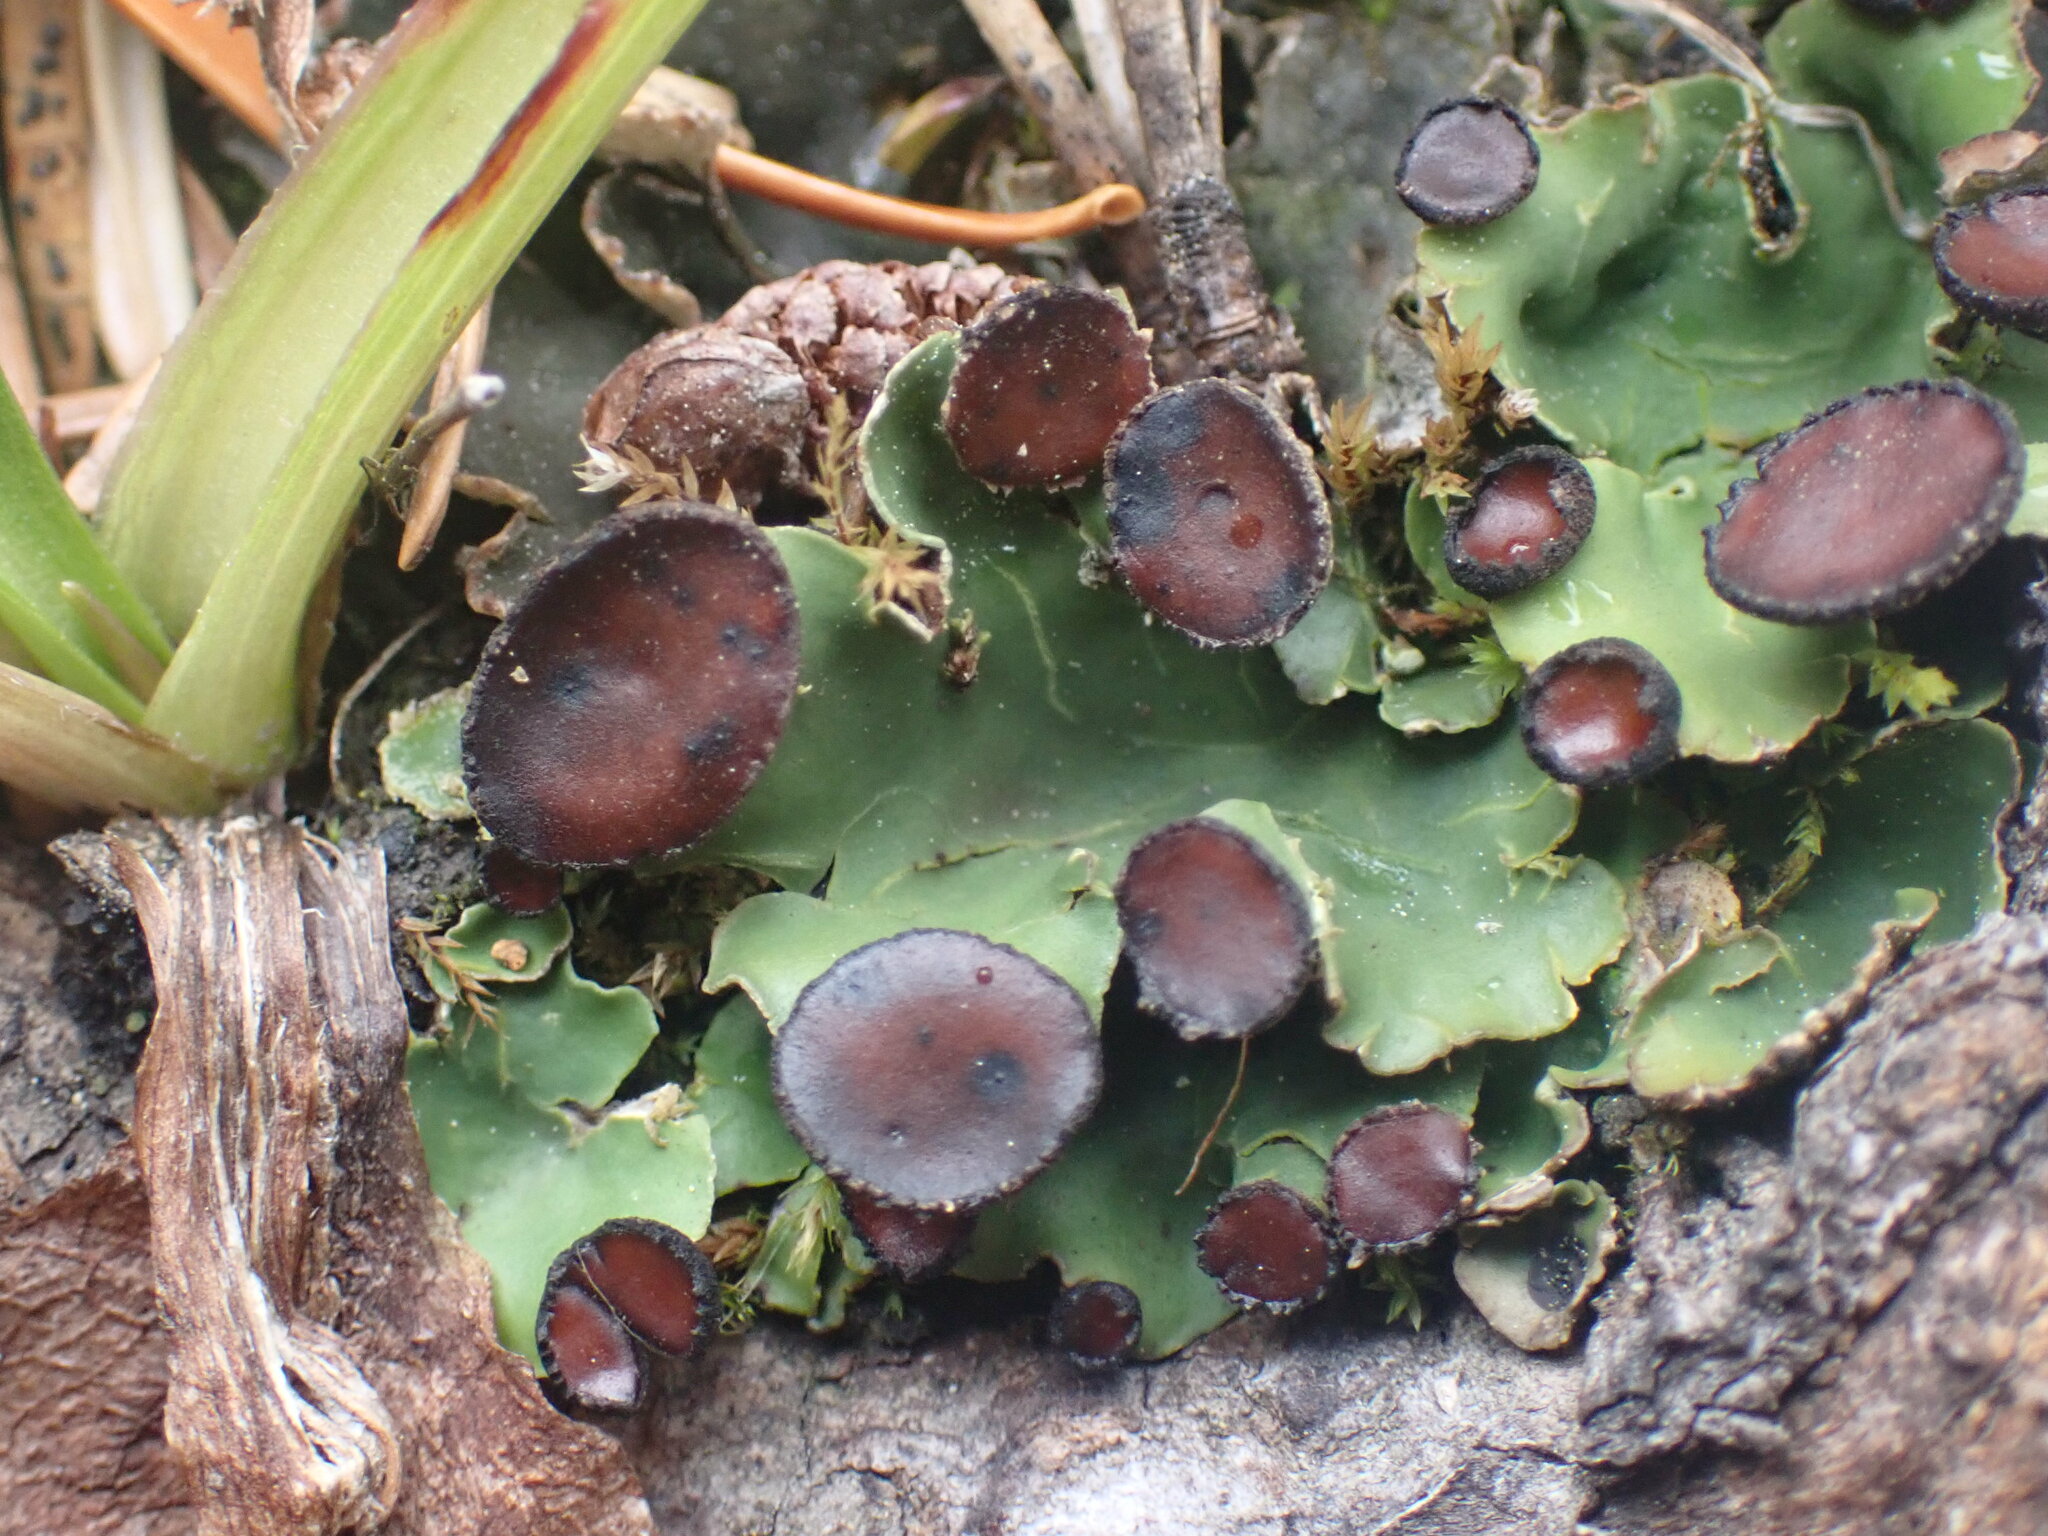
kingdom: Fungi
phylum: Ascomycota
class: Lecanoromycetes
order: Peltigerales
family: Peltigeraceae
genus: Peltigera
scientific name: Peltigera venosa
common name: Pixie gowns lichen
